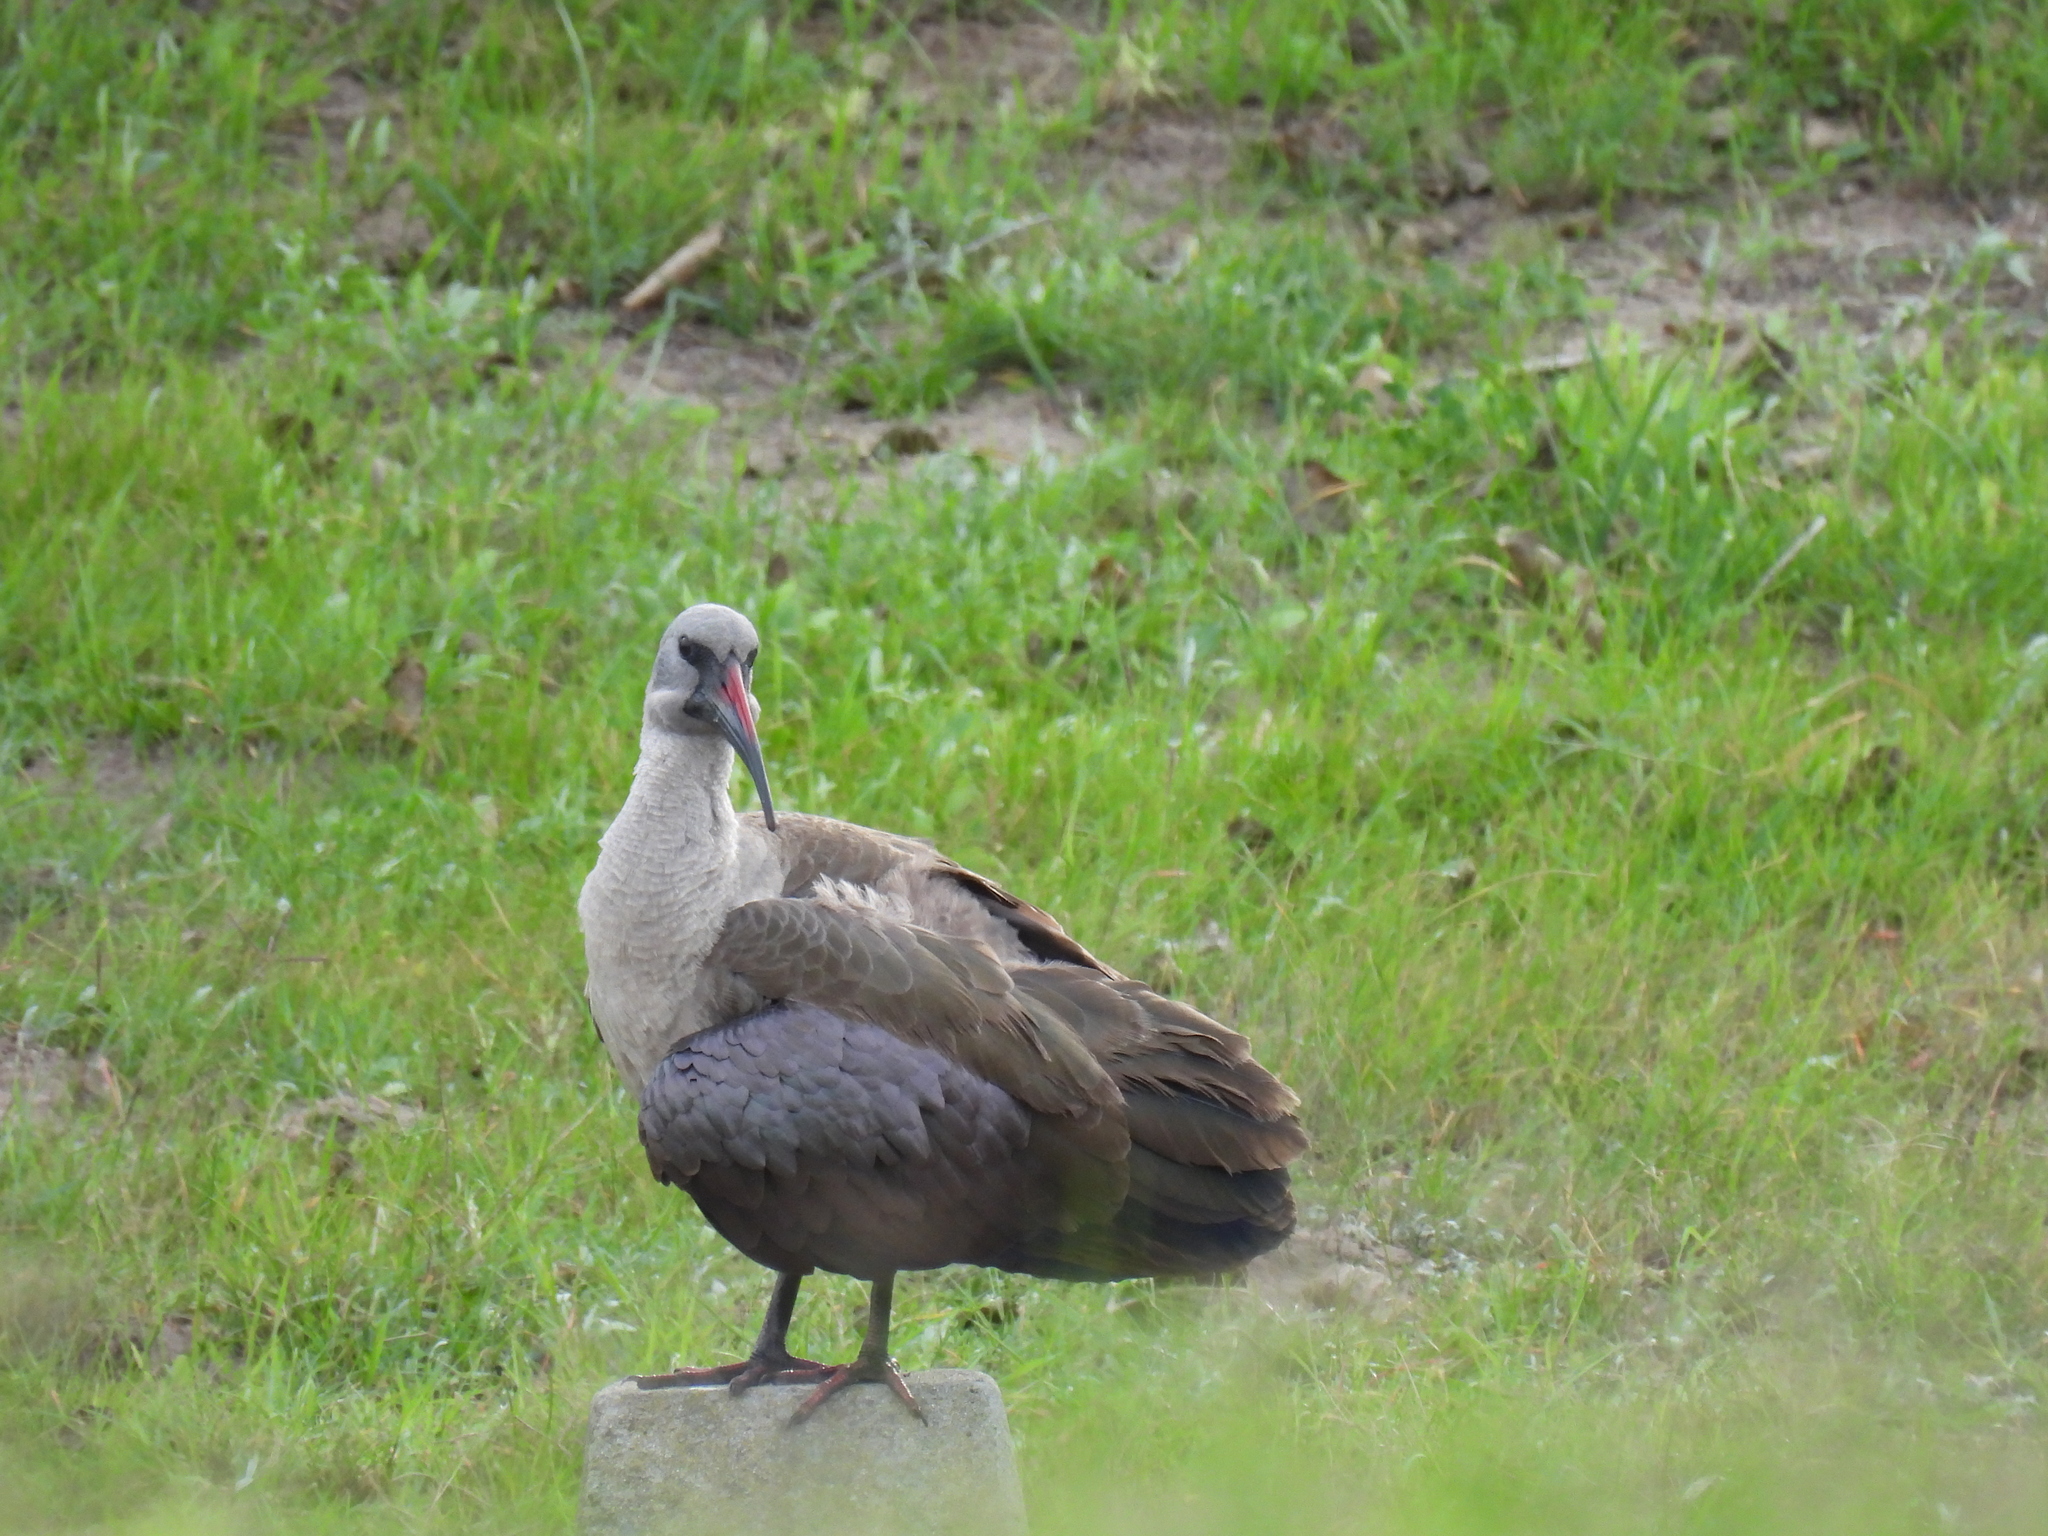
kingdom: Animalia
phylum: Chordata
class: Aves
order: Pelecaniformes
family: Threskiornithidae
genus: Bostrychia
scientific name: Bostrychia hagedash
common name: Hadada ibis
